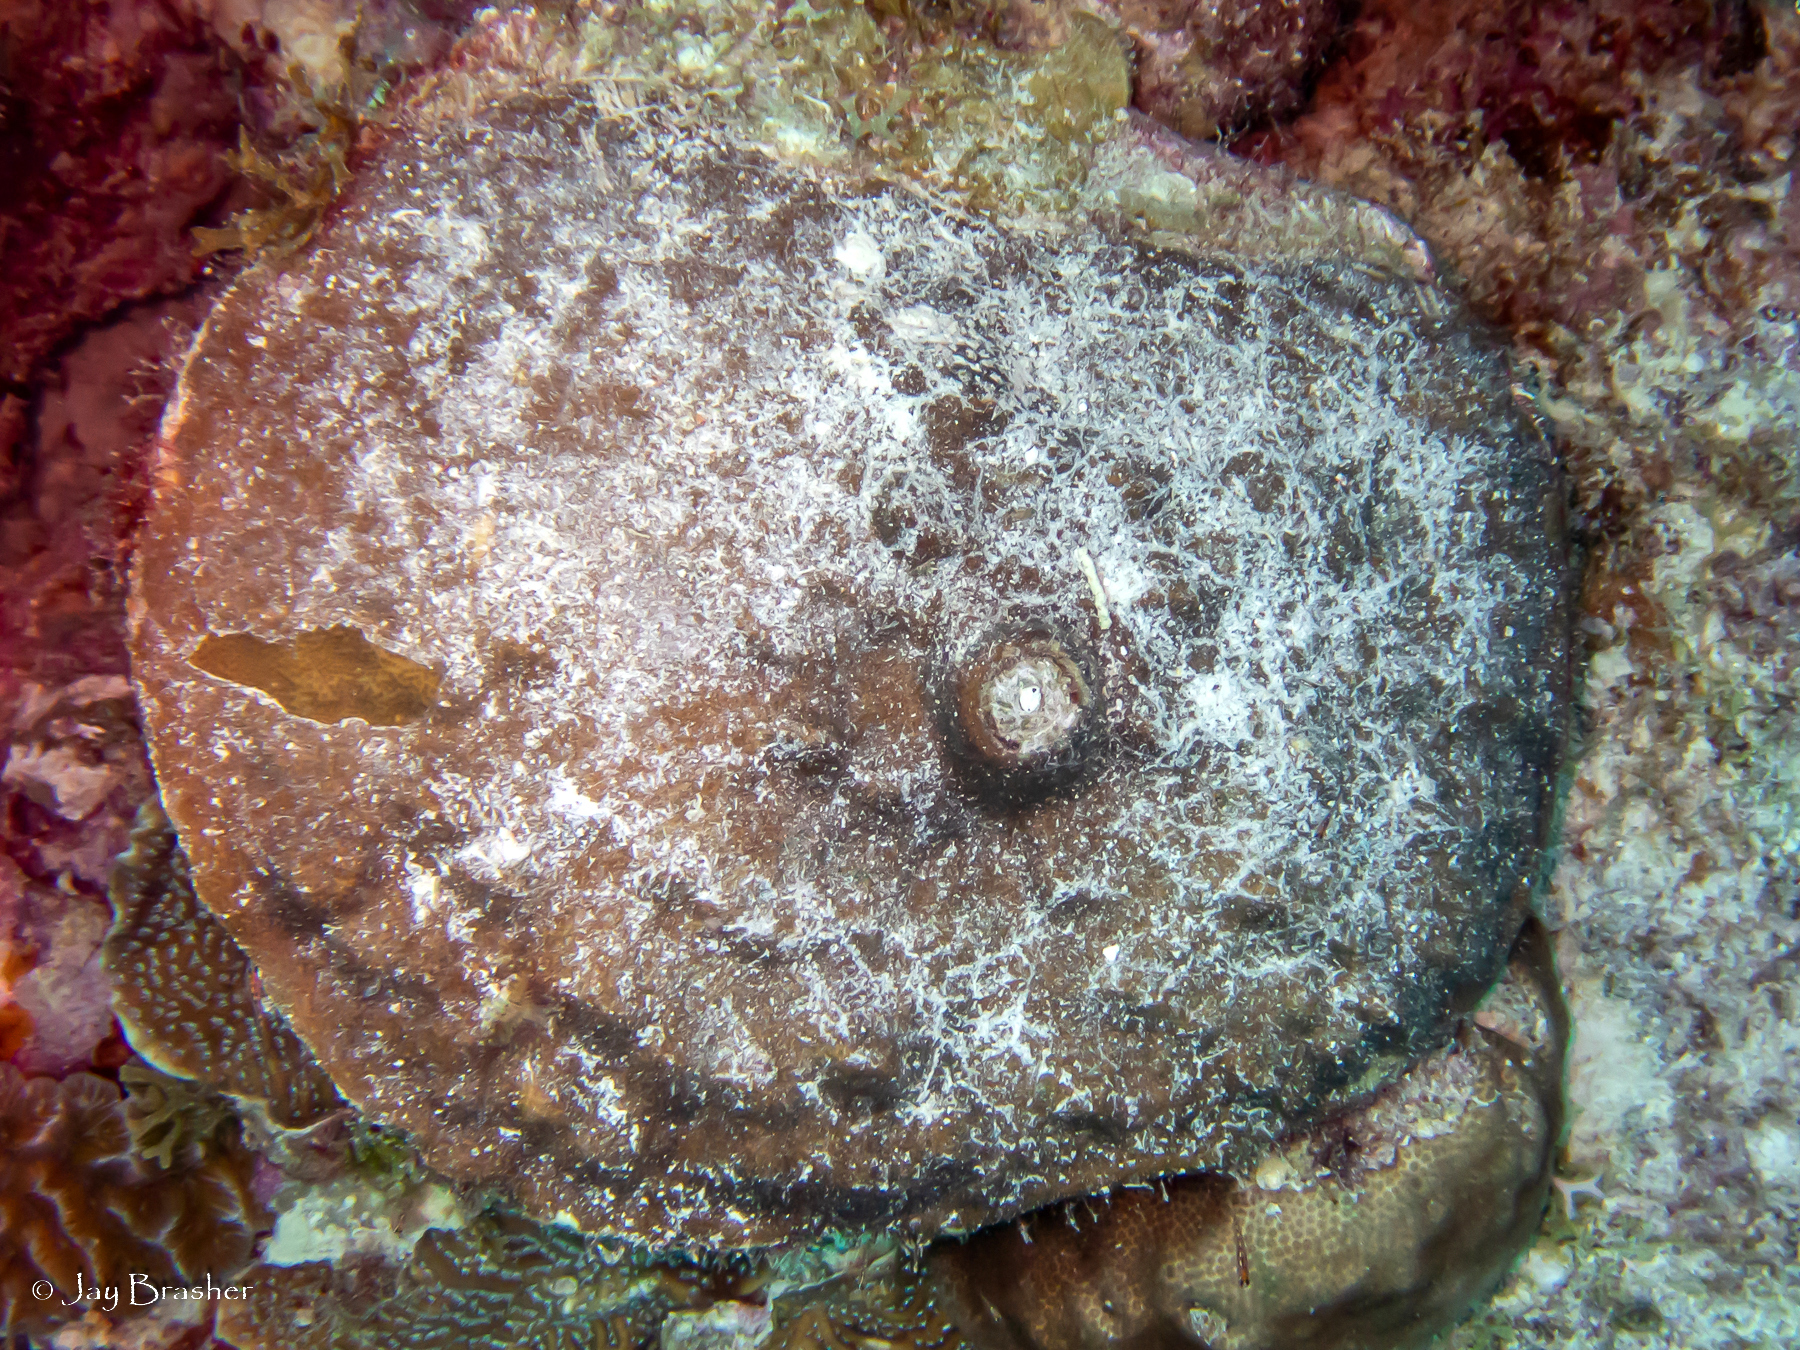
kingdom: Animalia
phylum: Cnidaria
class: Anthozoa
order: Scleractinia
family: Poritidae
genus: Porites
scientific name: Porites astreoides
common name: Mustard hill coral
